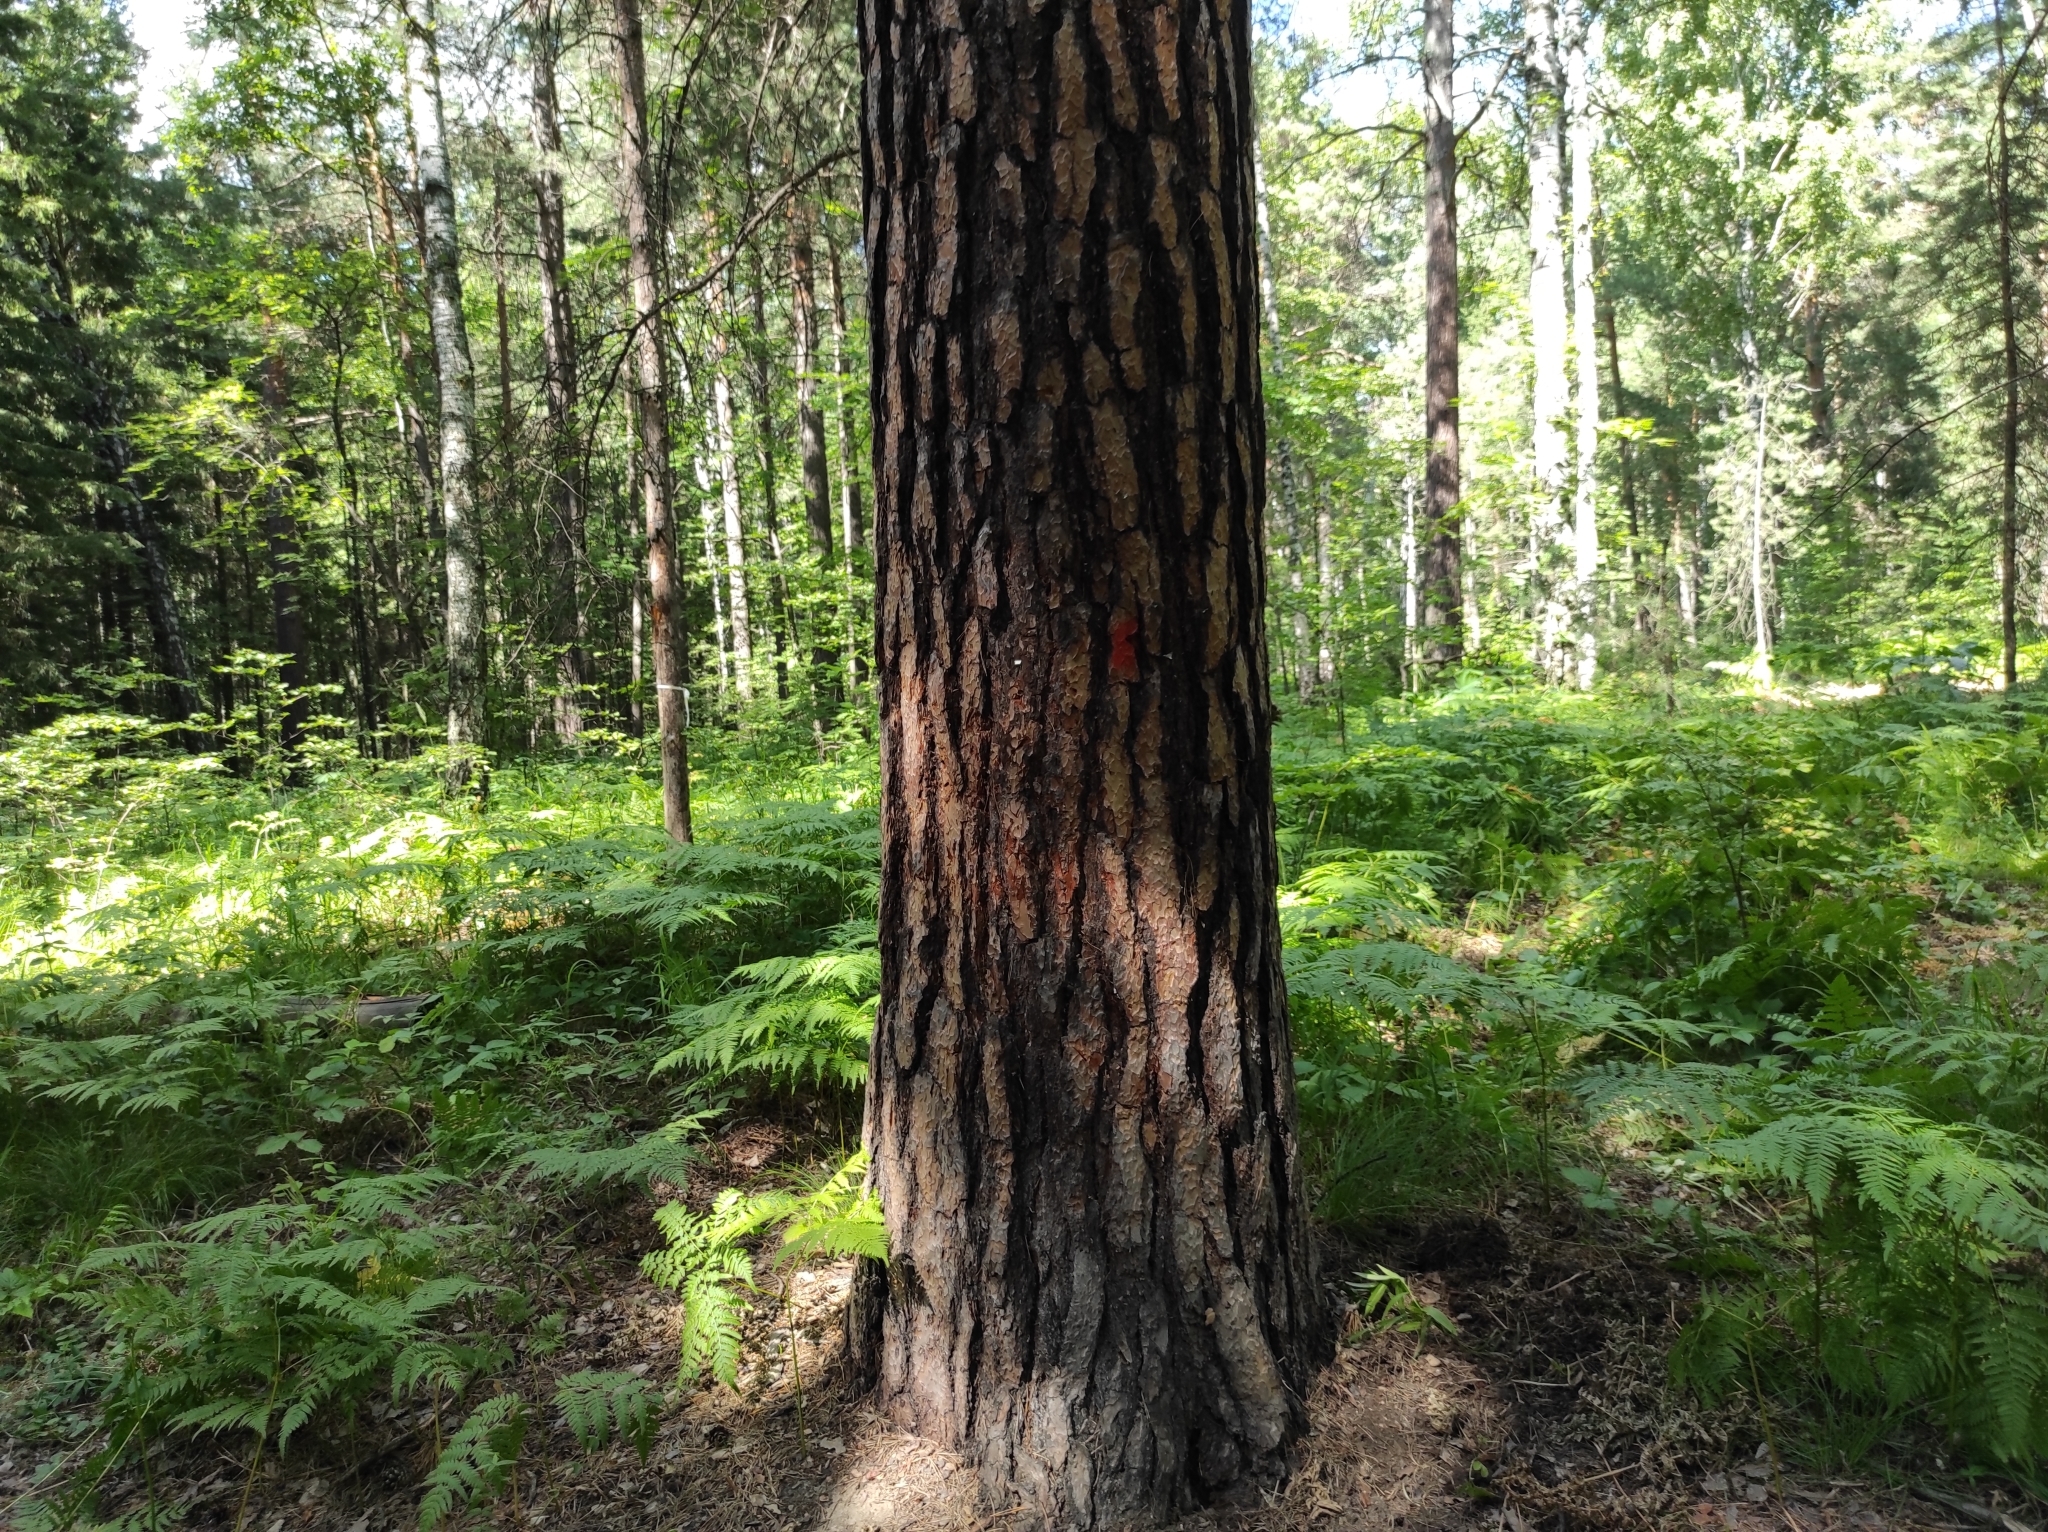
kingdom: Plantae
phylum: Tracheophyta
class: Pinopsida
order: Pinales
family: Pinaceae
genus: Pinus
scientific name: Pinus sylvestris
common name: Scots pine
